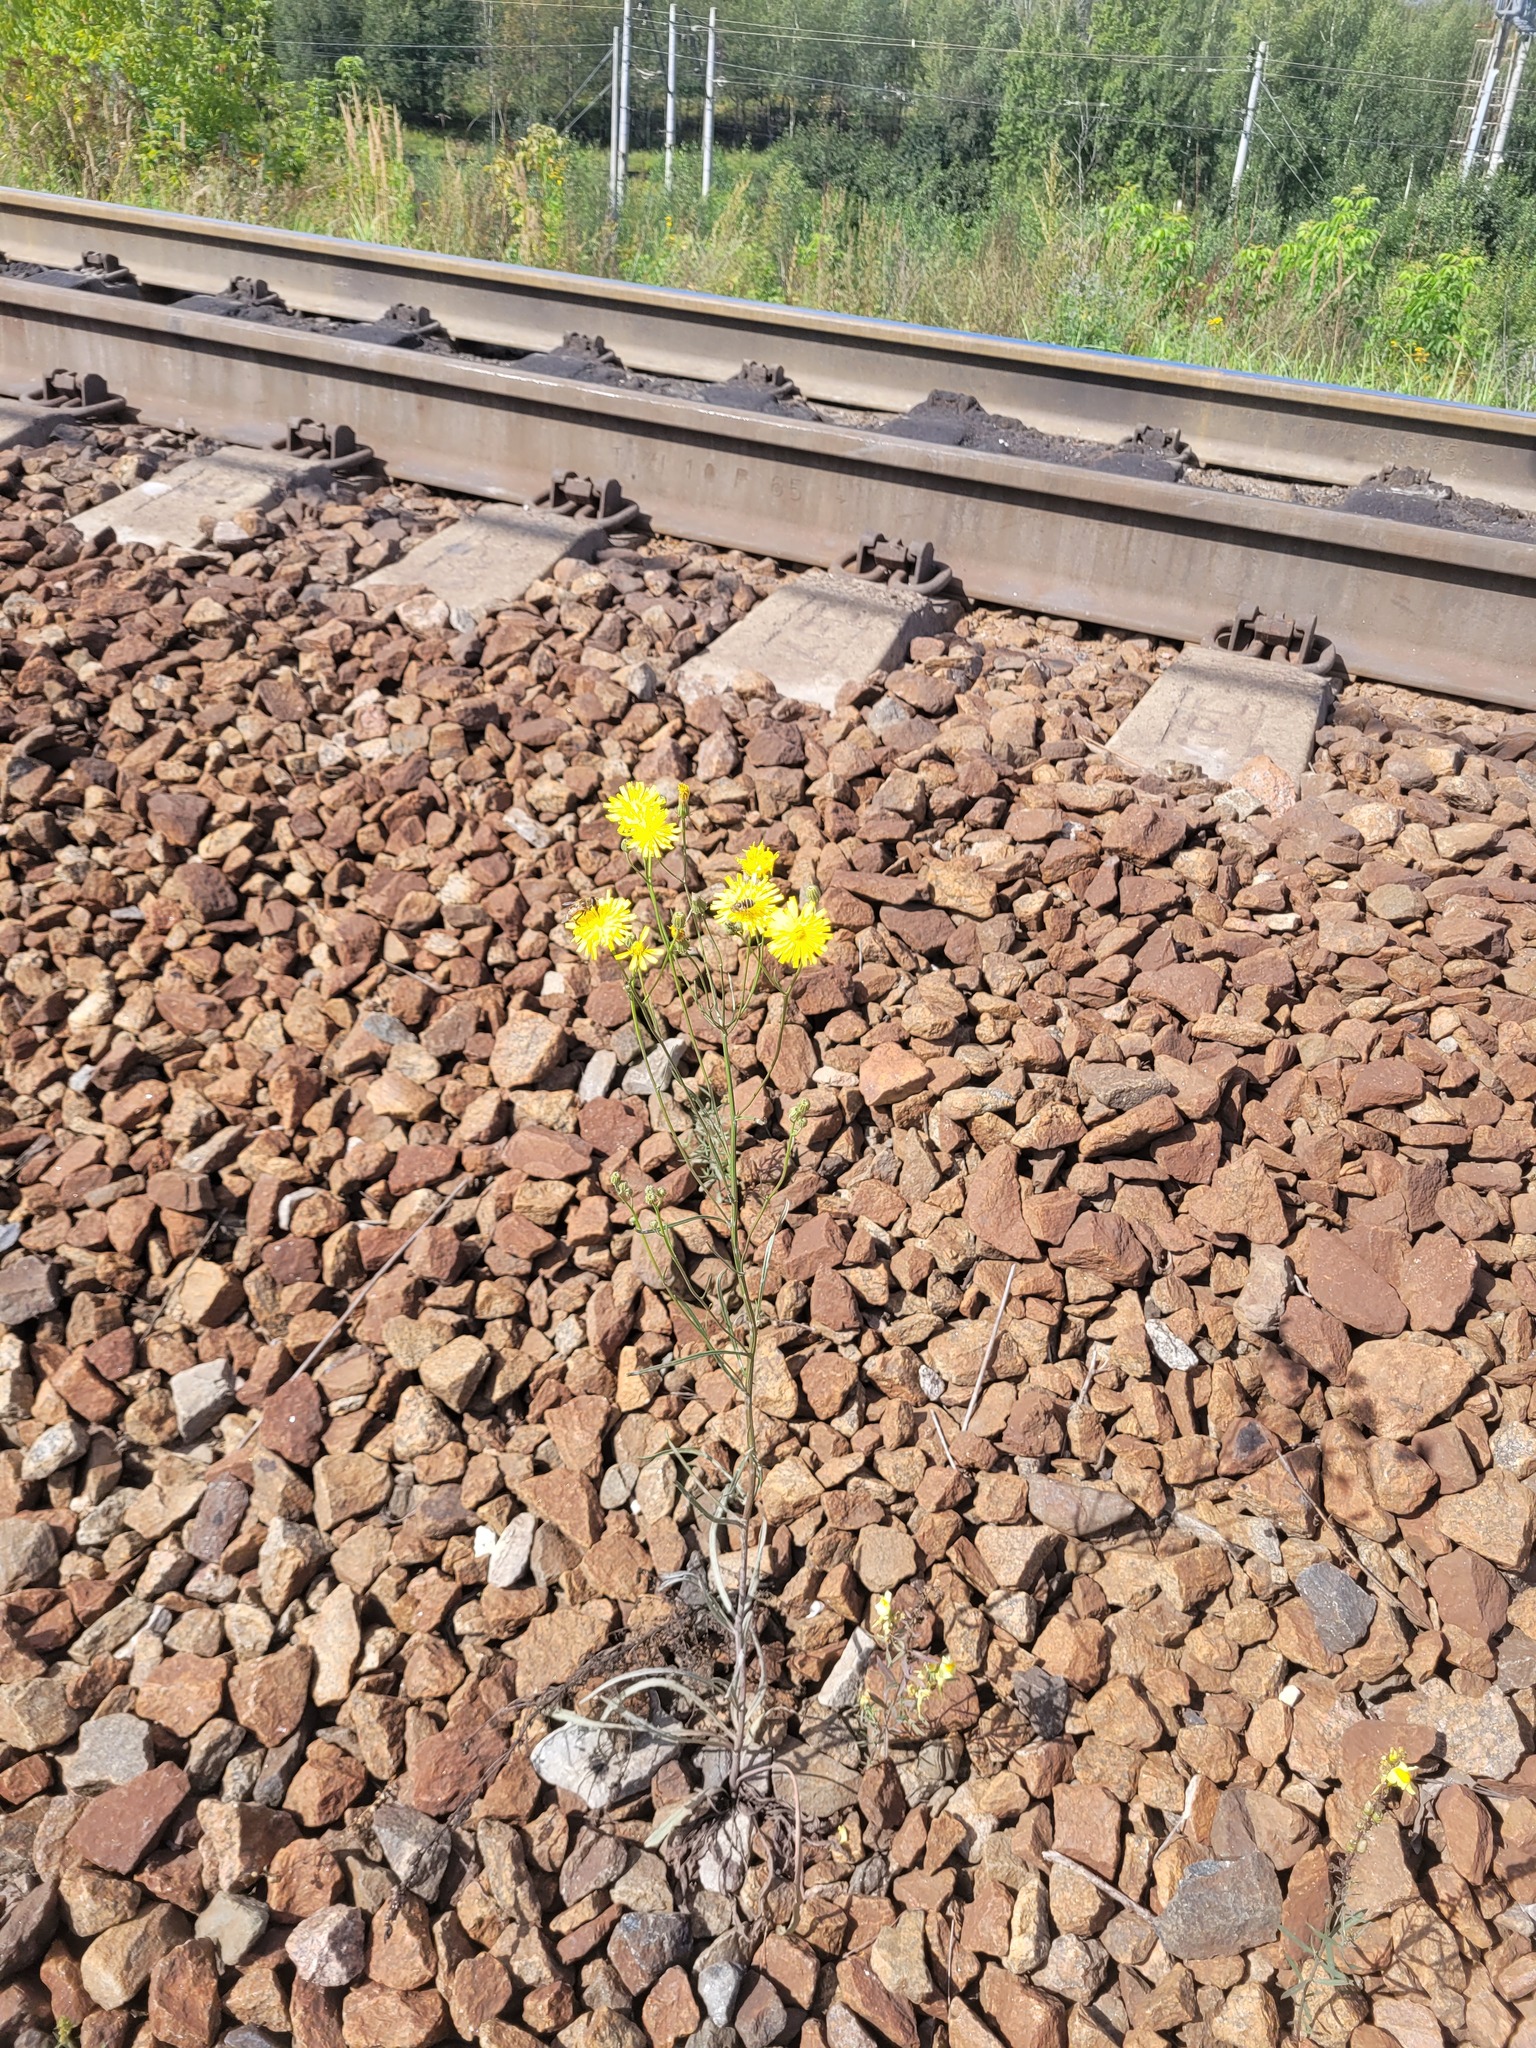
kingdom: Plantae
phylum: Tracheophyta
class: Magnoliopsida
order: Asterales
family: Asteraceae
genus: Crepis
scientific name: Crepis tectorum
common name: Narrow-leaved hawk's-beard
